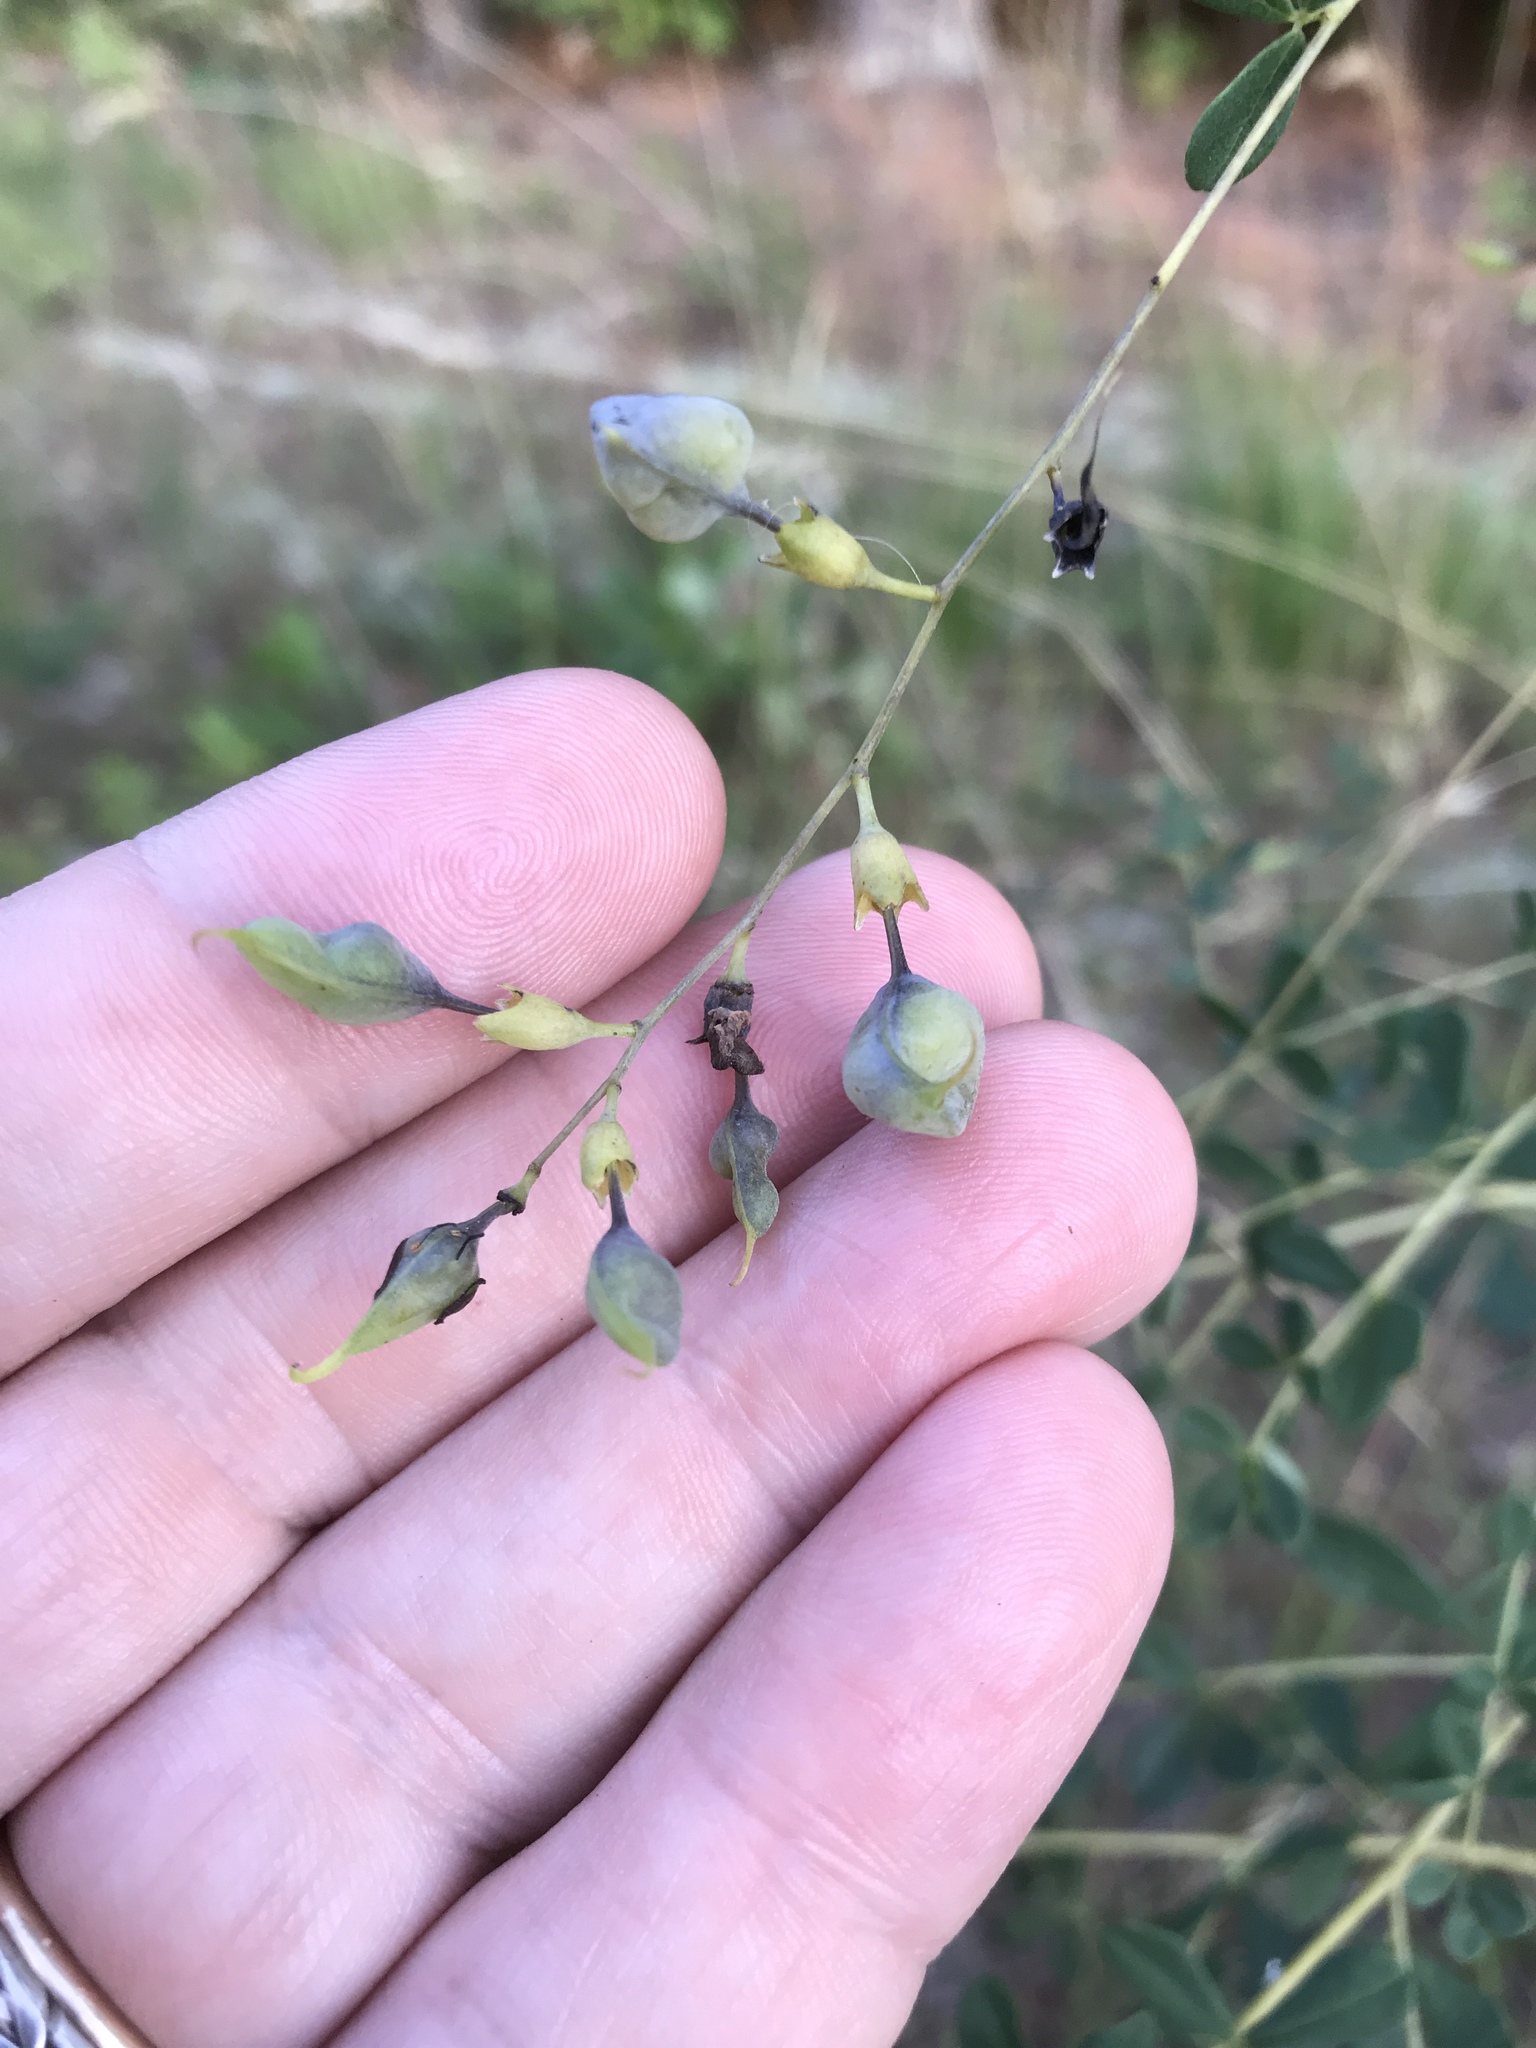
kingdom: Plantae
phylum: Tracheophyta
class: Magnoliopsida
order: Fabales
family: Fabaceae
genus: Baptisia
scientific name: Baptisia tinctoria
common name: Wild indigo
